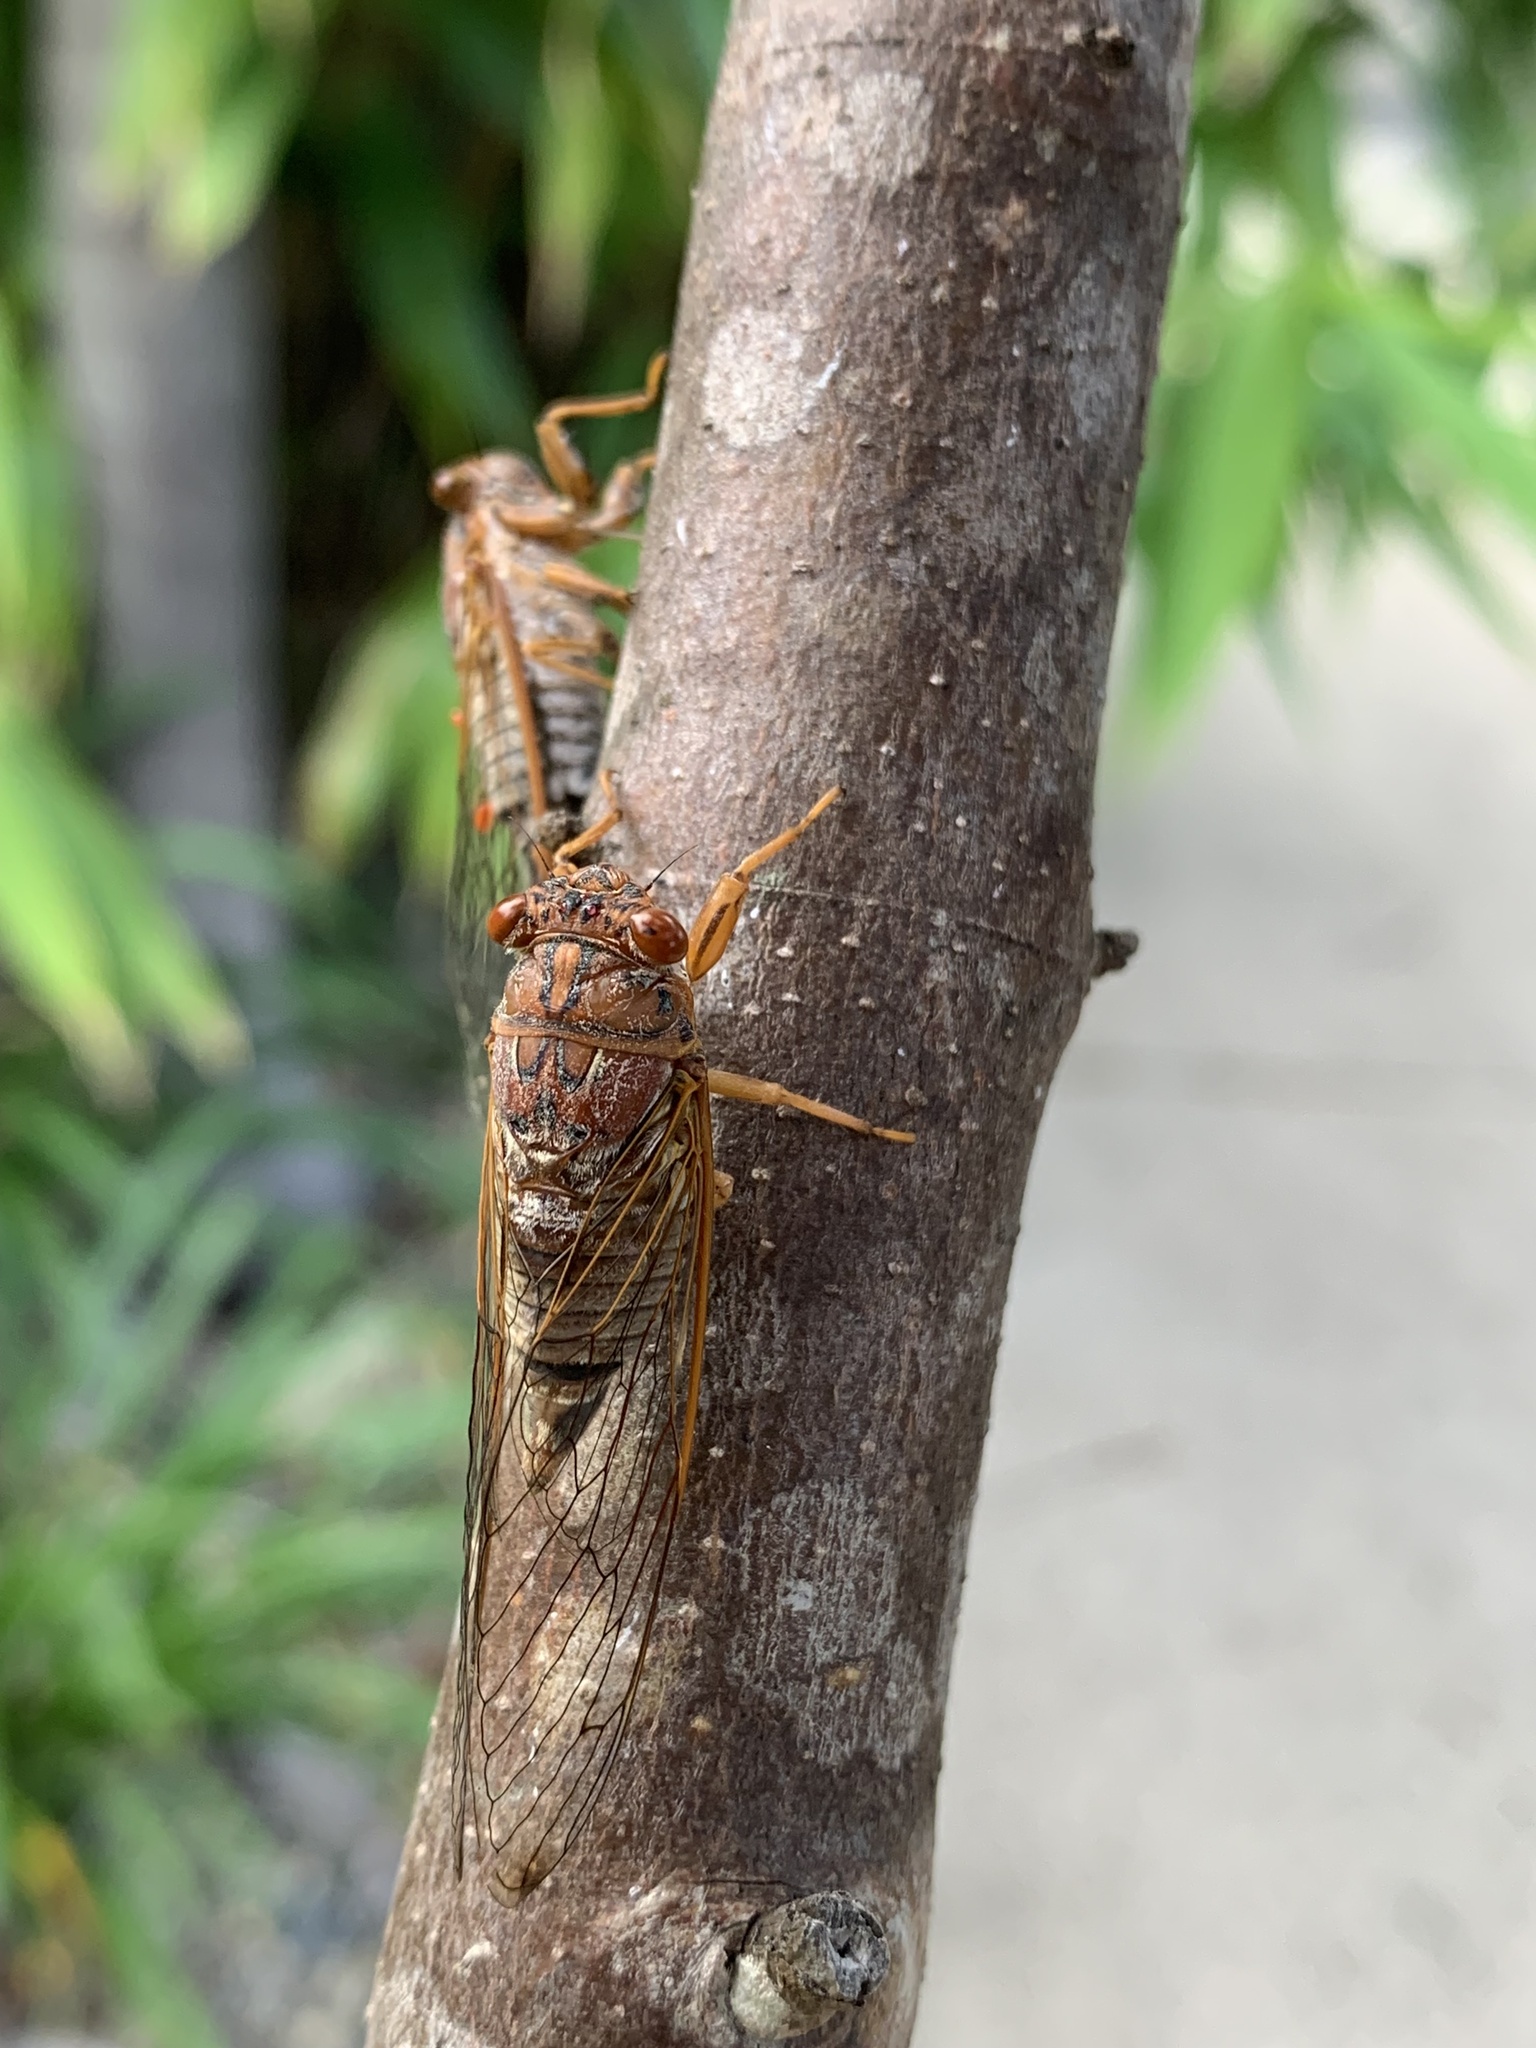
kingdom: Animalia
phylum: Arthropoda
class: Insecta
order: Hemiptera
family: Cicadidae
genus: Tamasa
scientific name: Tamasa doddi
